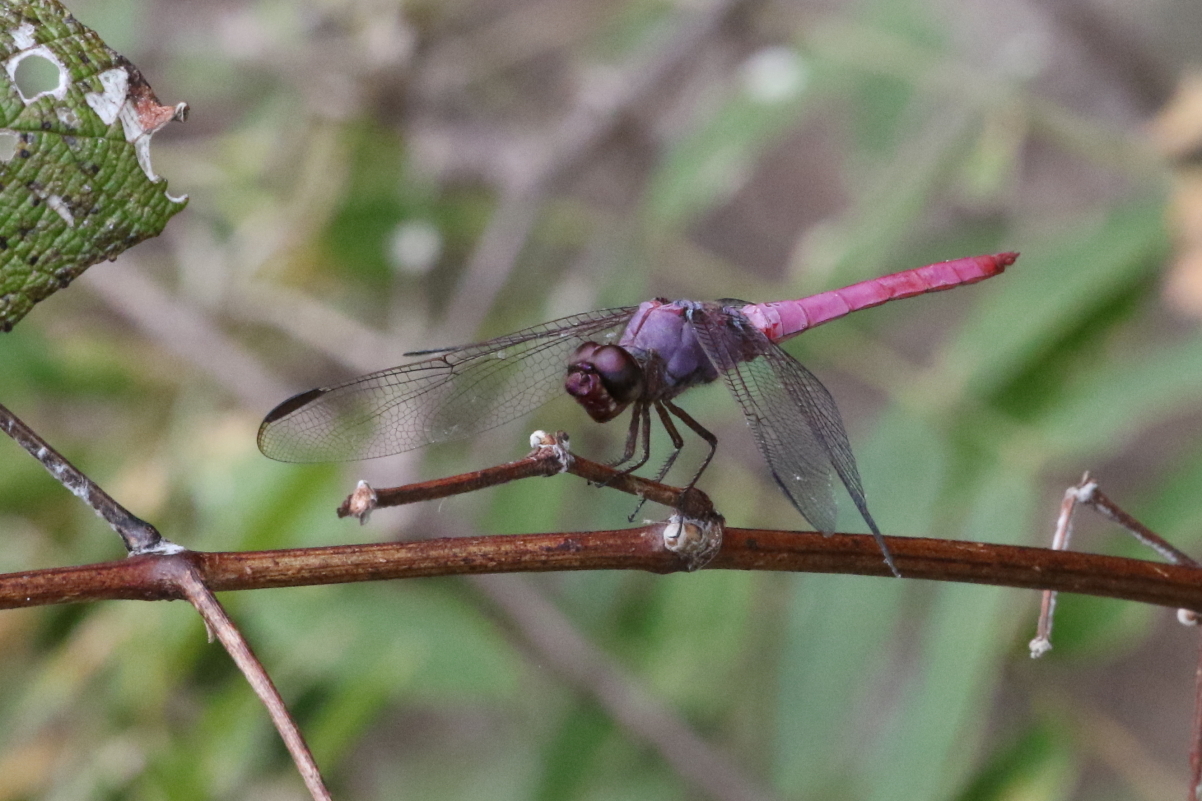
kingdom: Animalia
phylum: Arthropoda
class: Insecta
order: Odonata
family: Libellulidae
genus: Orthemis
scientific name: Orthemis ferruginea
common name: Roseate skimmer
